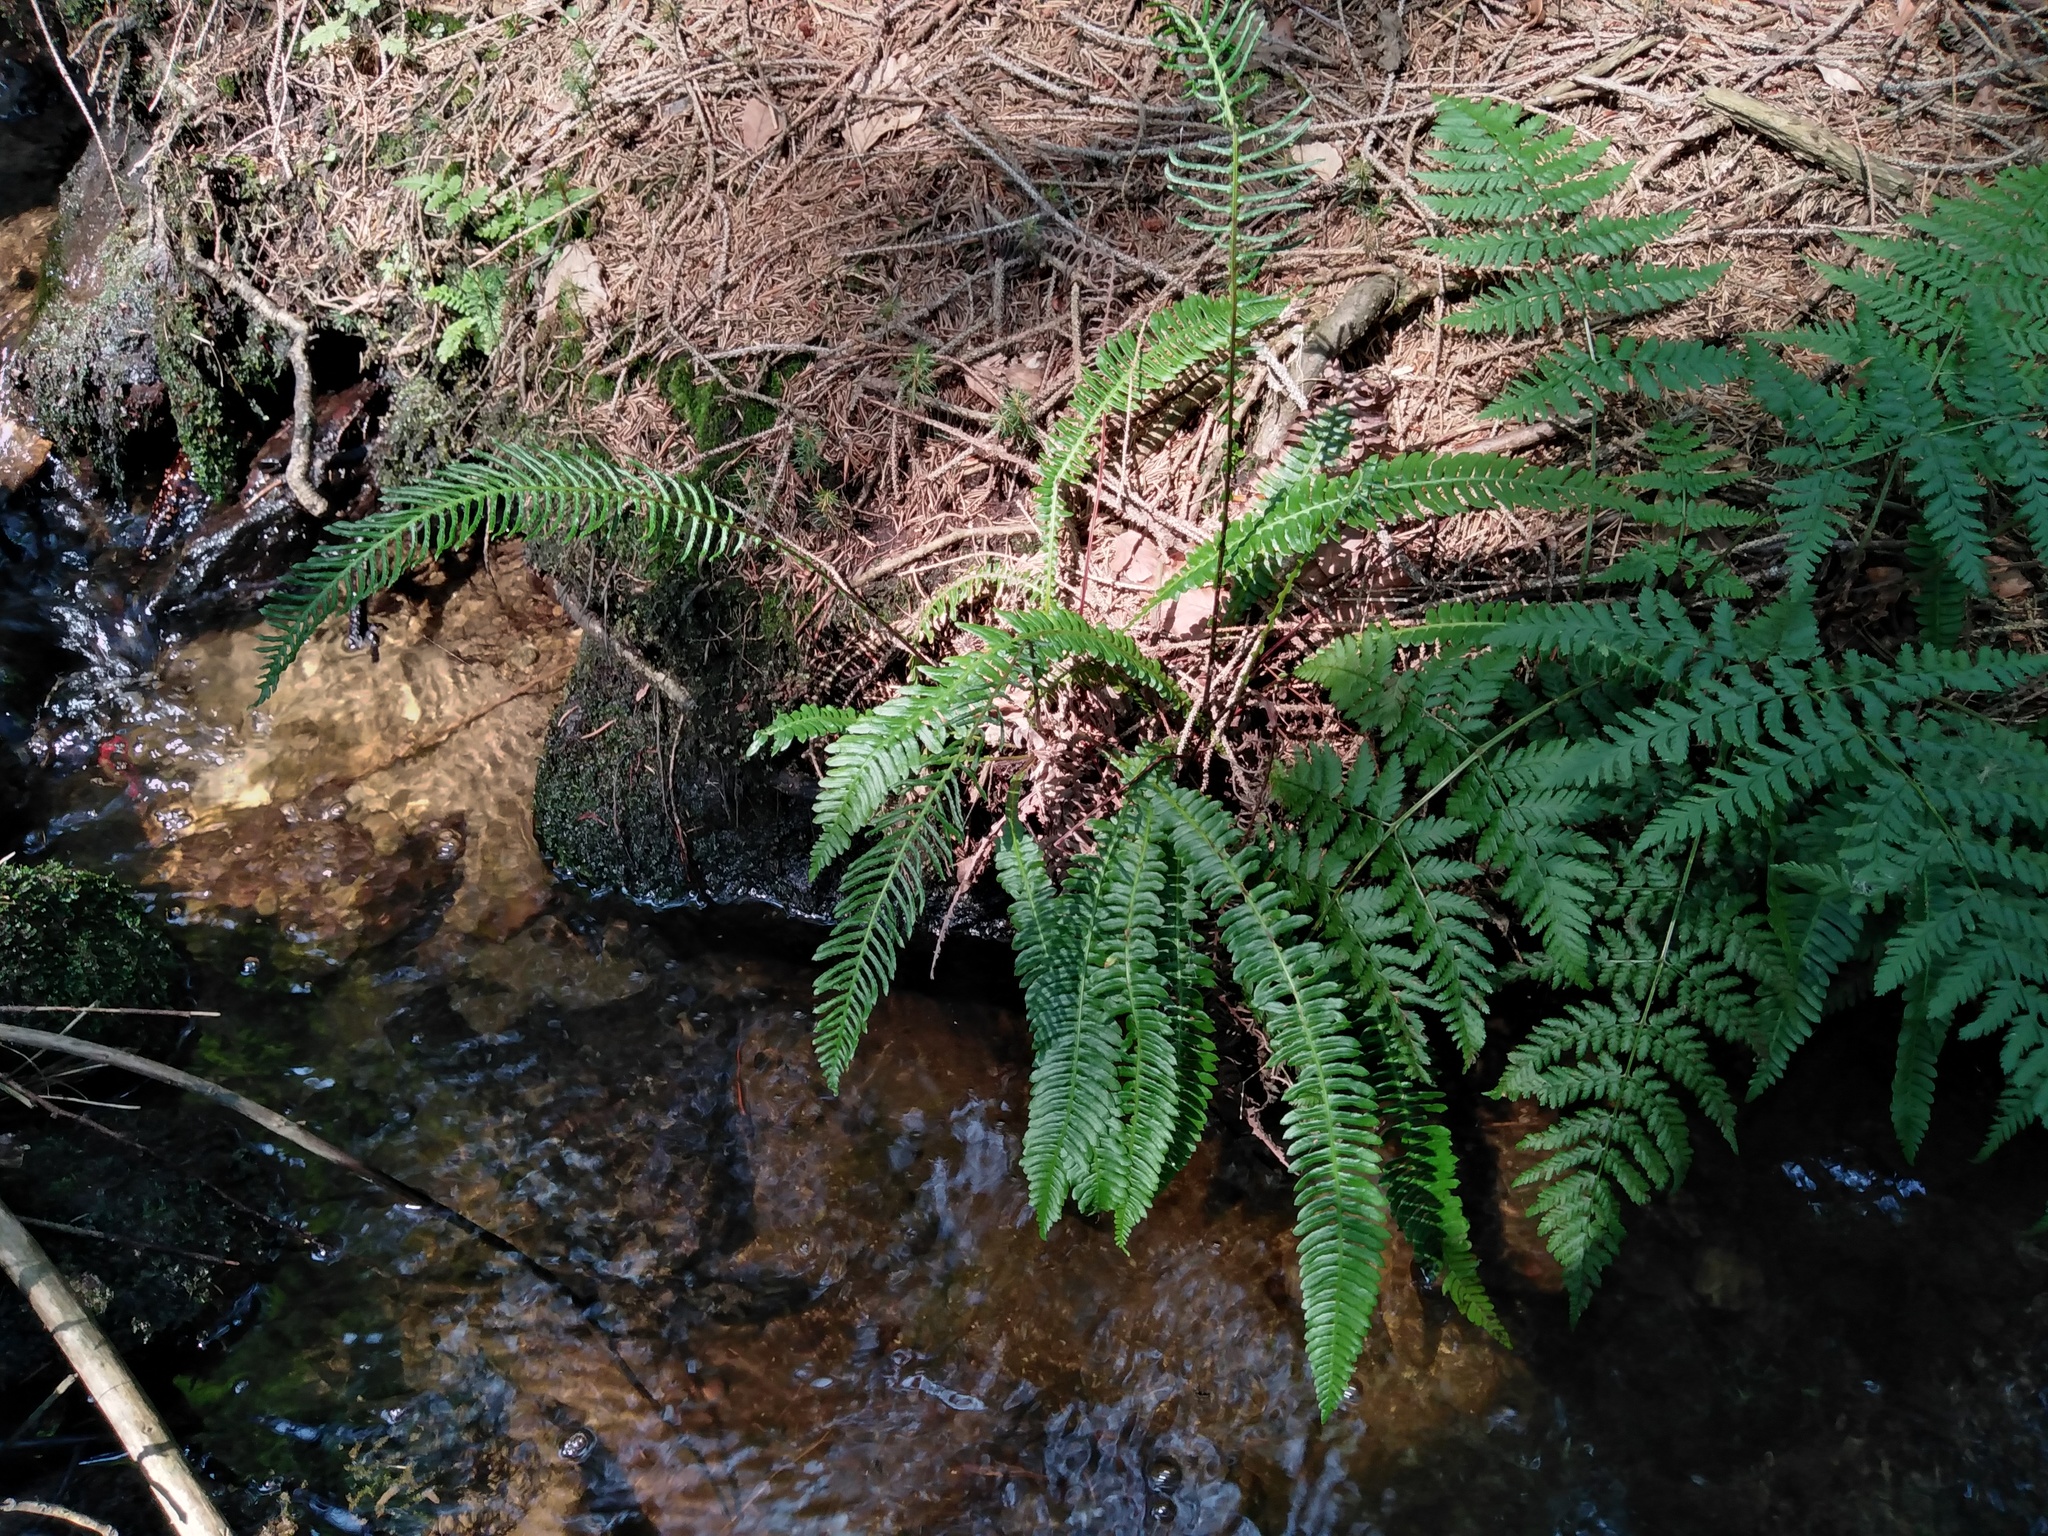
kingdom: Plantae
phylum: Tracheophyta
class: Polypodiopsida
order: Polypodiales
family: Blechnaceae
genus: Struthiopteris
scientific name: Struthiopteris spicant
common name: Deer fern
